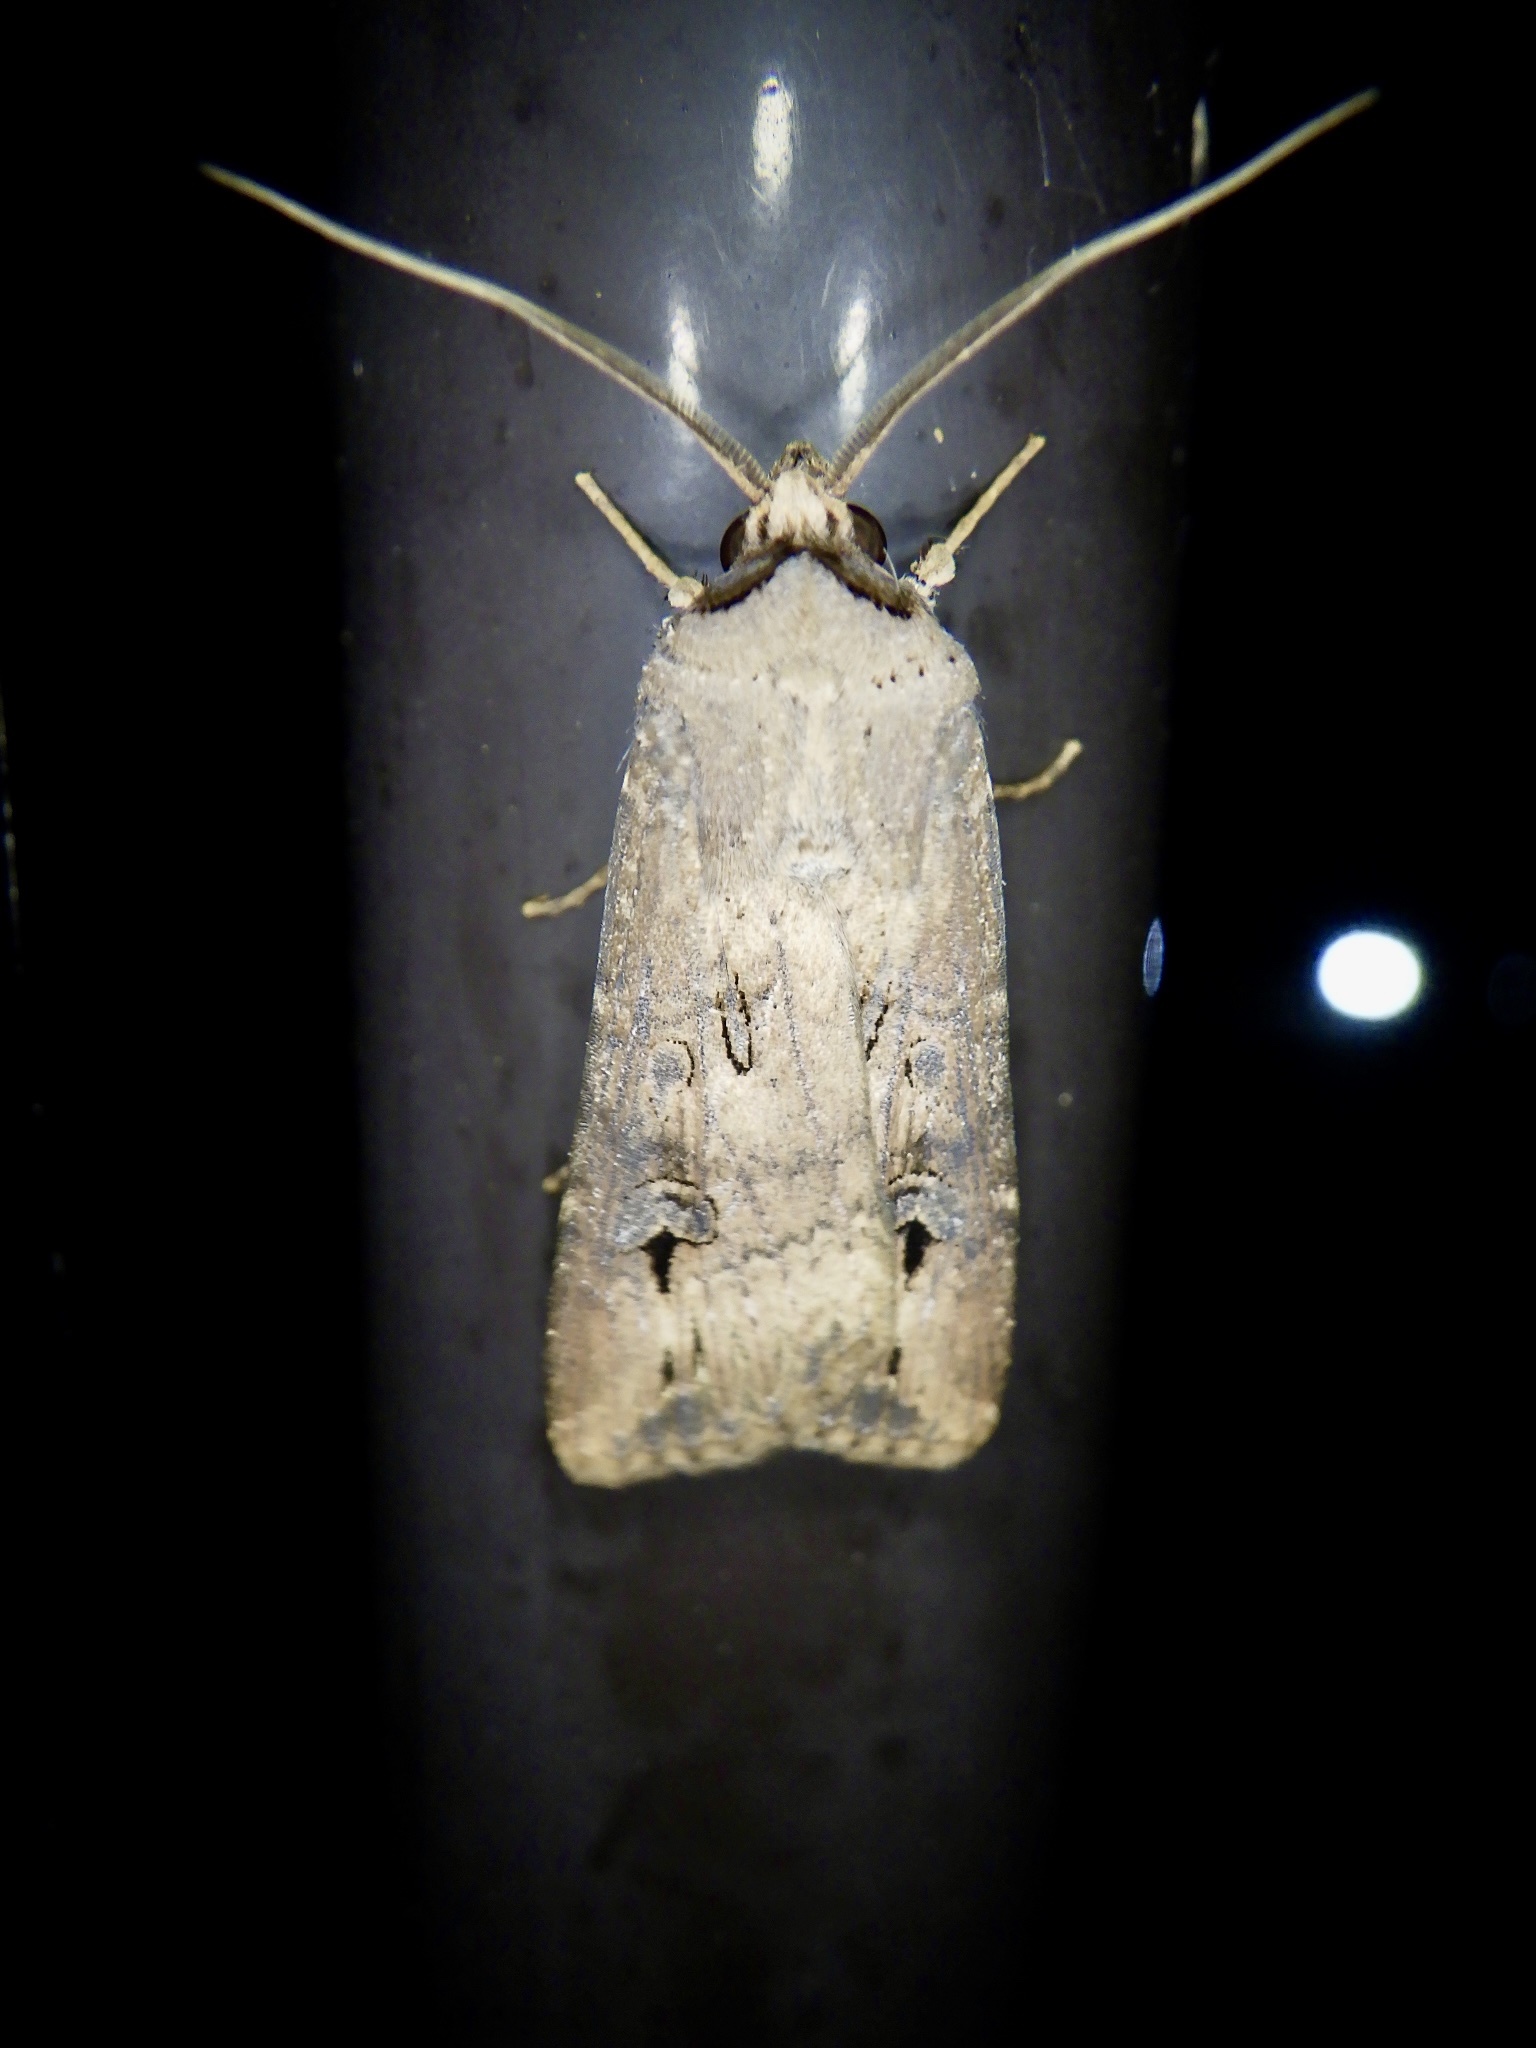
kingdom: Animalia
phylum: Arthropoda
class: Insecta
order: Lepidoptera
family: Noctuidae
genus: Agrotis
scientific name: Agrotis ipsilon
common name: Dark sword-grass
